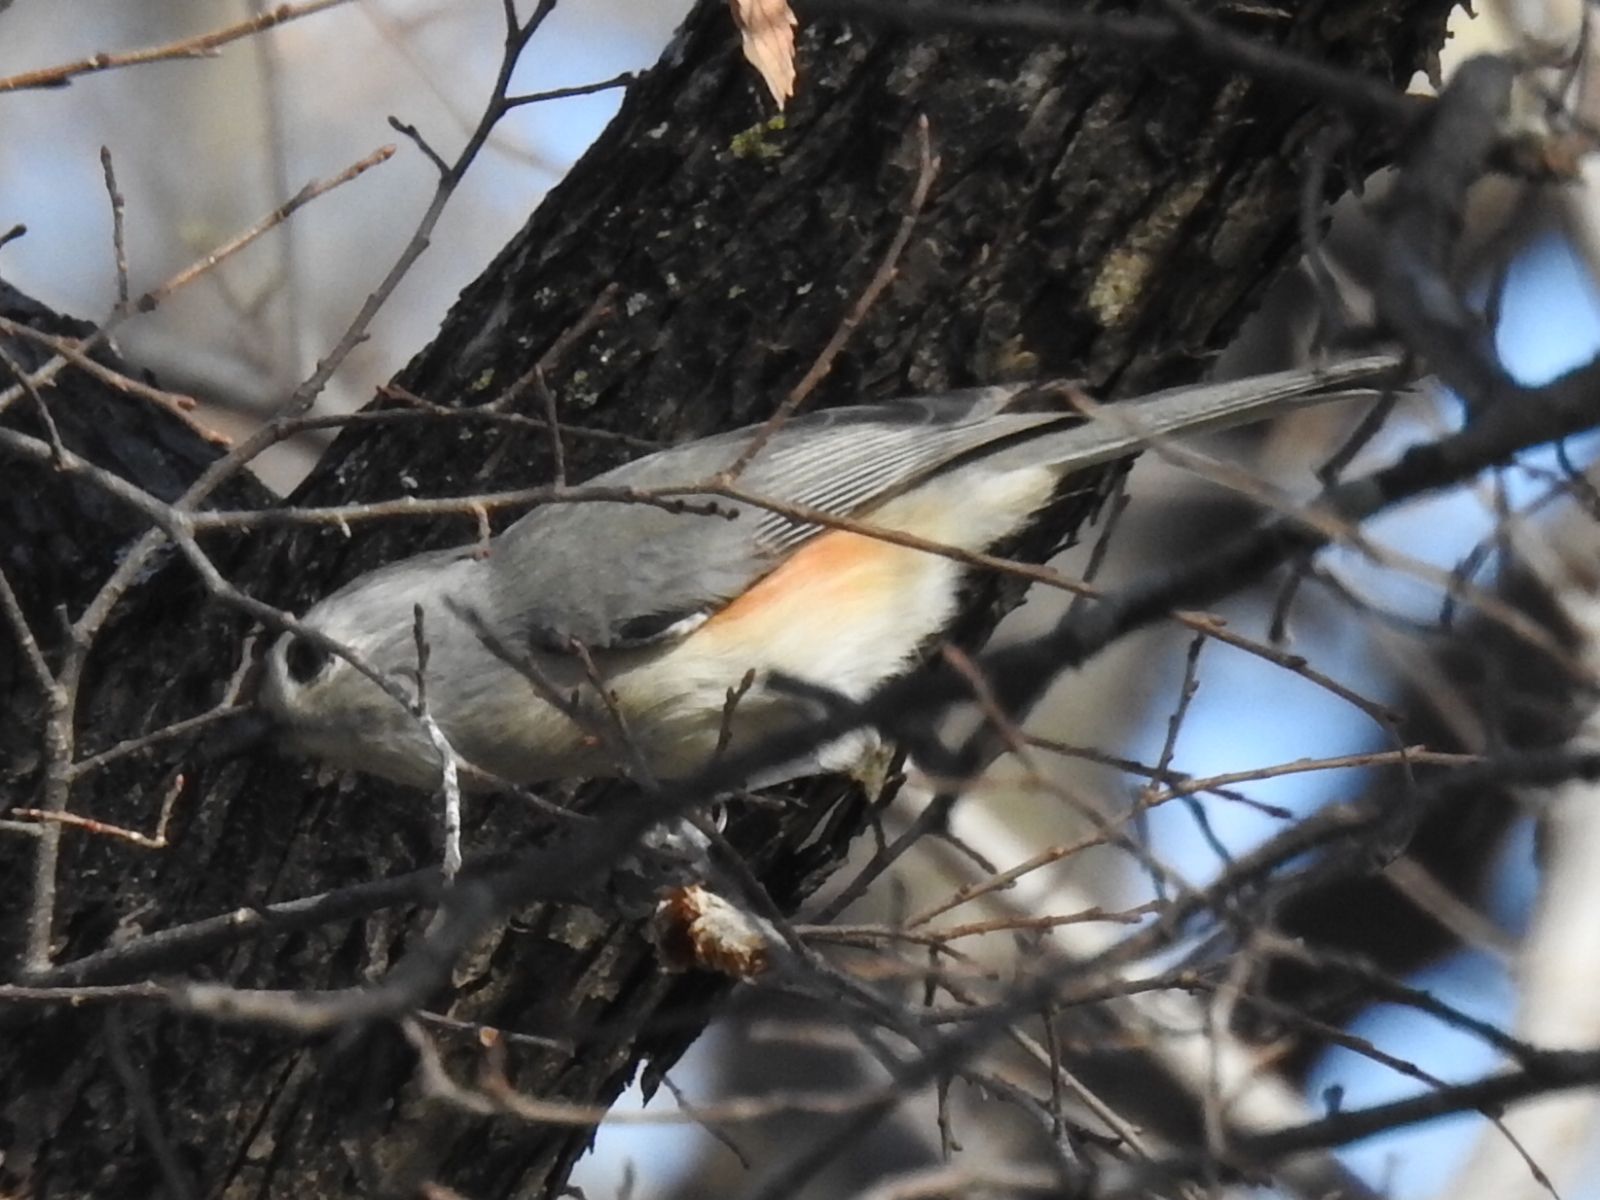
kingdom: Animalia
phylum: Chordata
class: Aves
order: Passeriformes
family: Paridae
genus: Baeolophus
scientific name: Baeolophus bicolor
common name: Tufted titmouse
